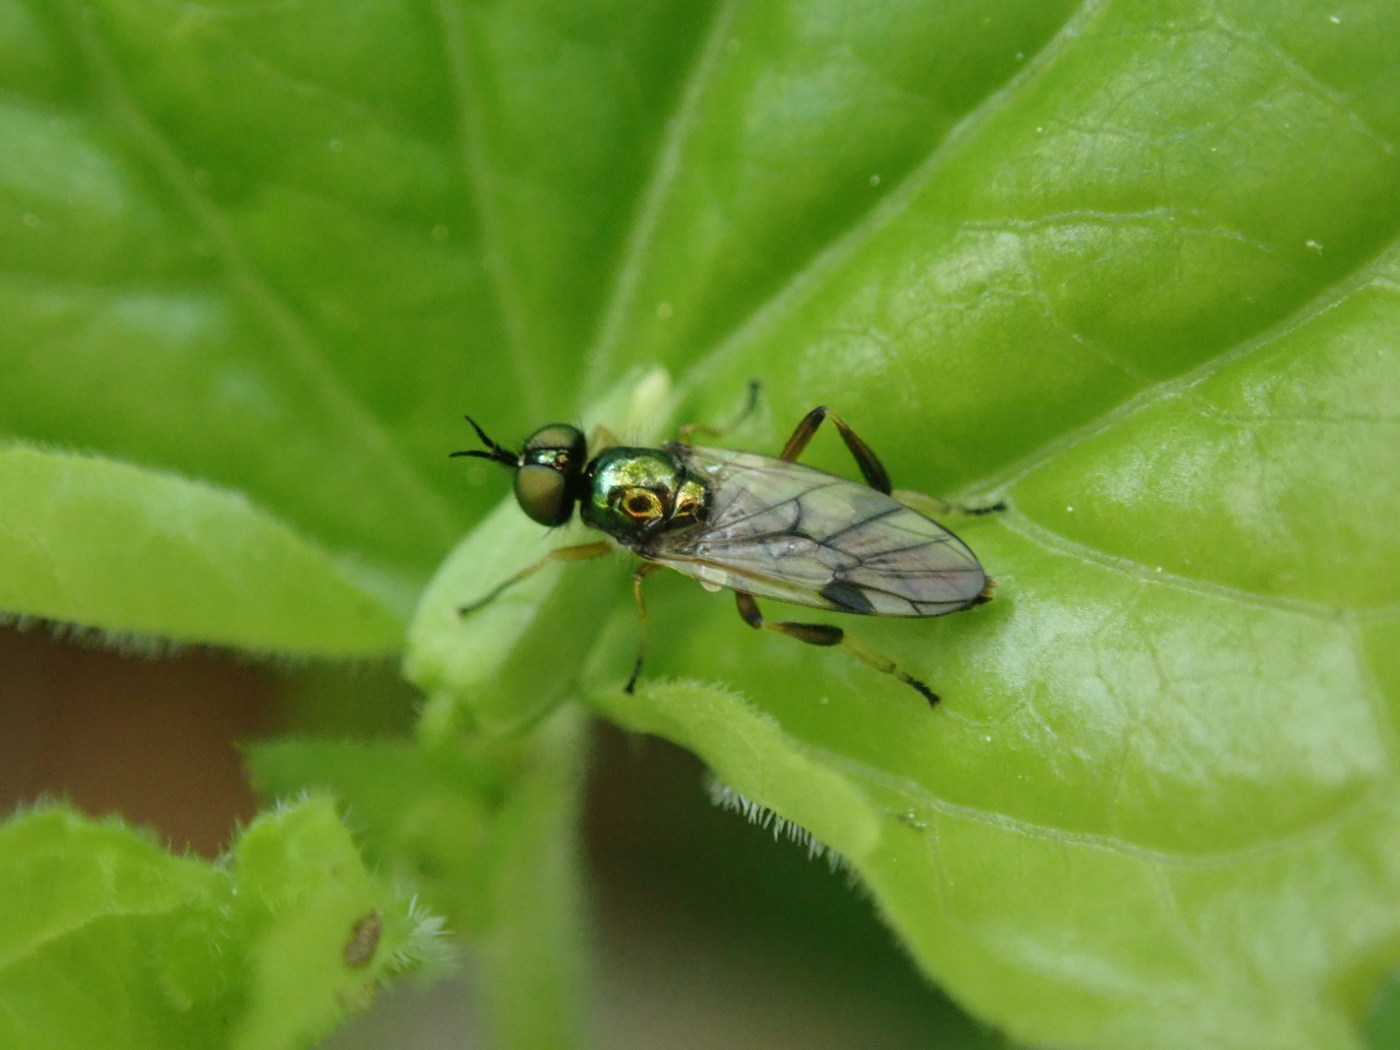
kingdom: Animalia
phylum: Arthropoda
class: Insecta
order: Diptera
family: Stratiomyidae
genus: Actina
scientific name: Actina viridis
